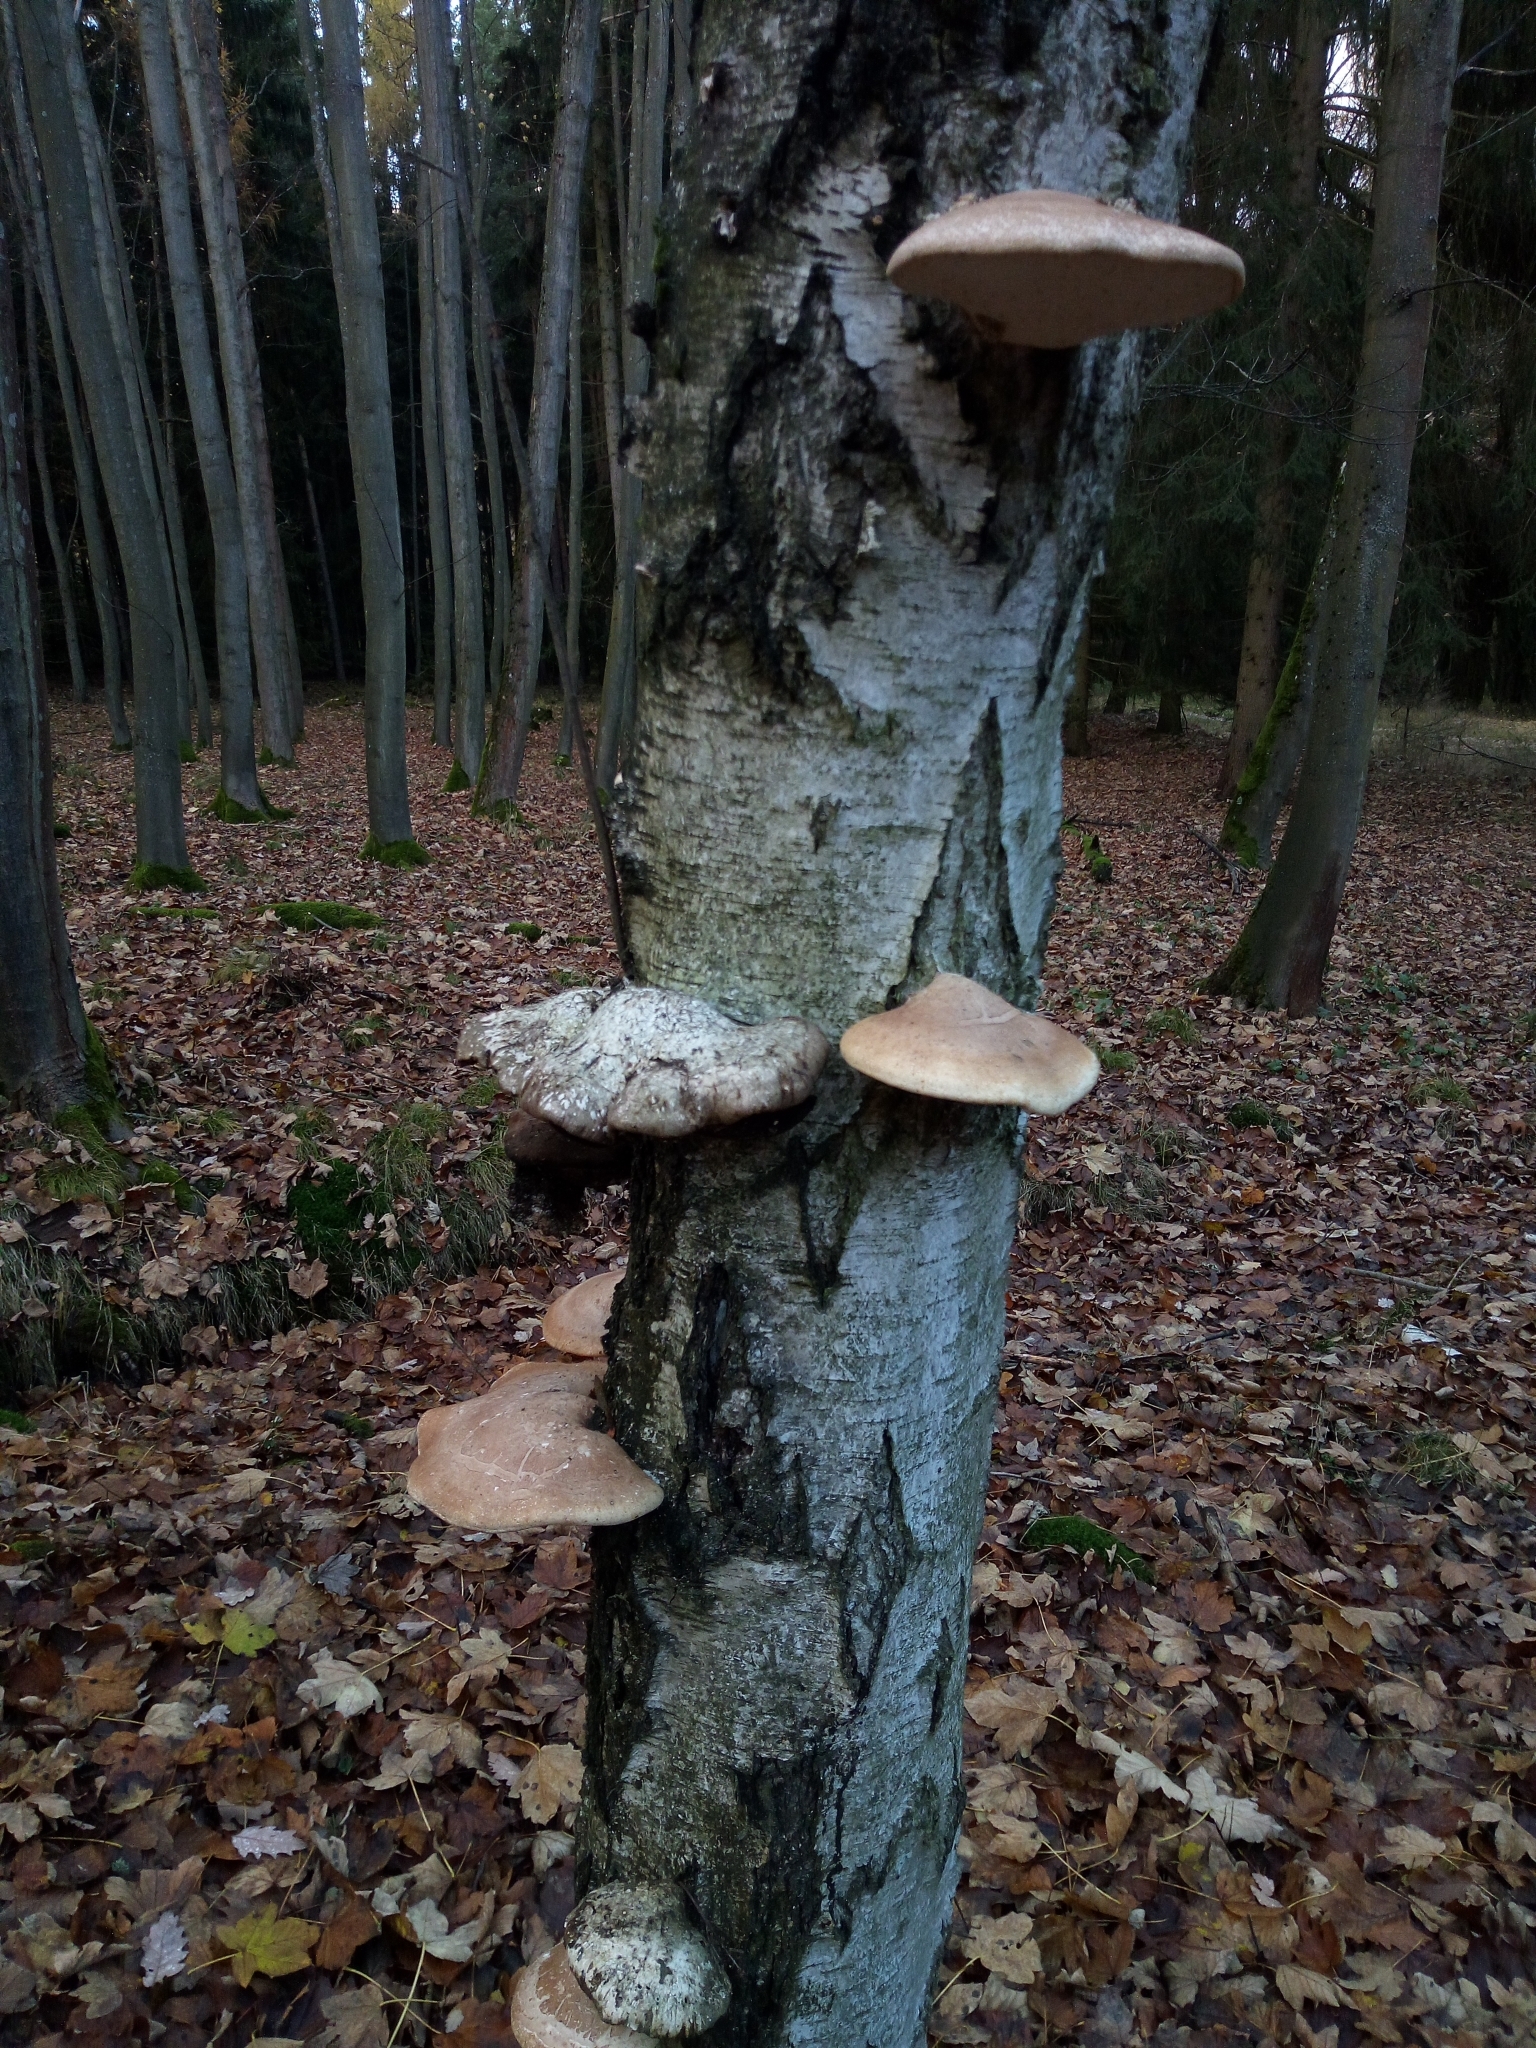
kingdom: Fungi
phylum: Basidiomycota
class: Agaricomycetes
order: Polyporales
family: Fomitopsidaceae
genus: Fomitopsis
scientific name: Fomitopsis betulina
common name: Birch polypore
